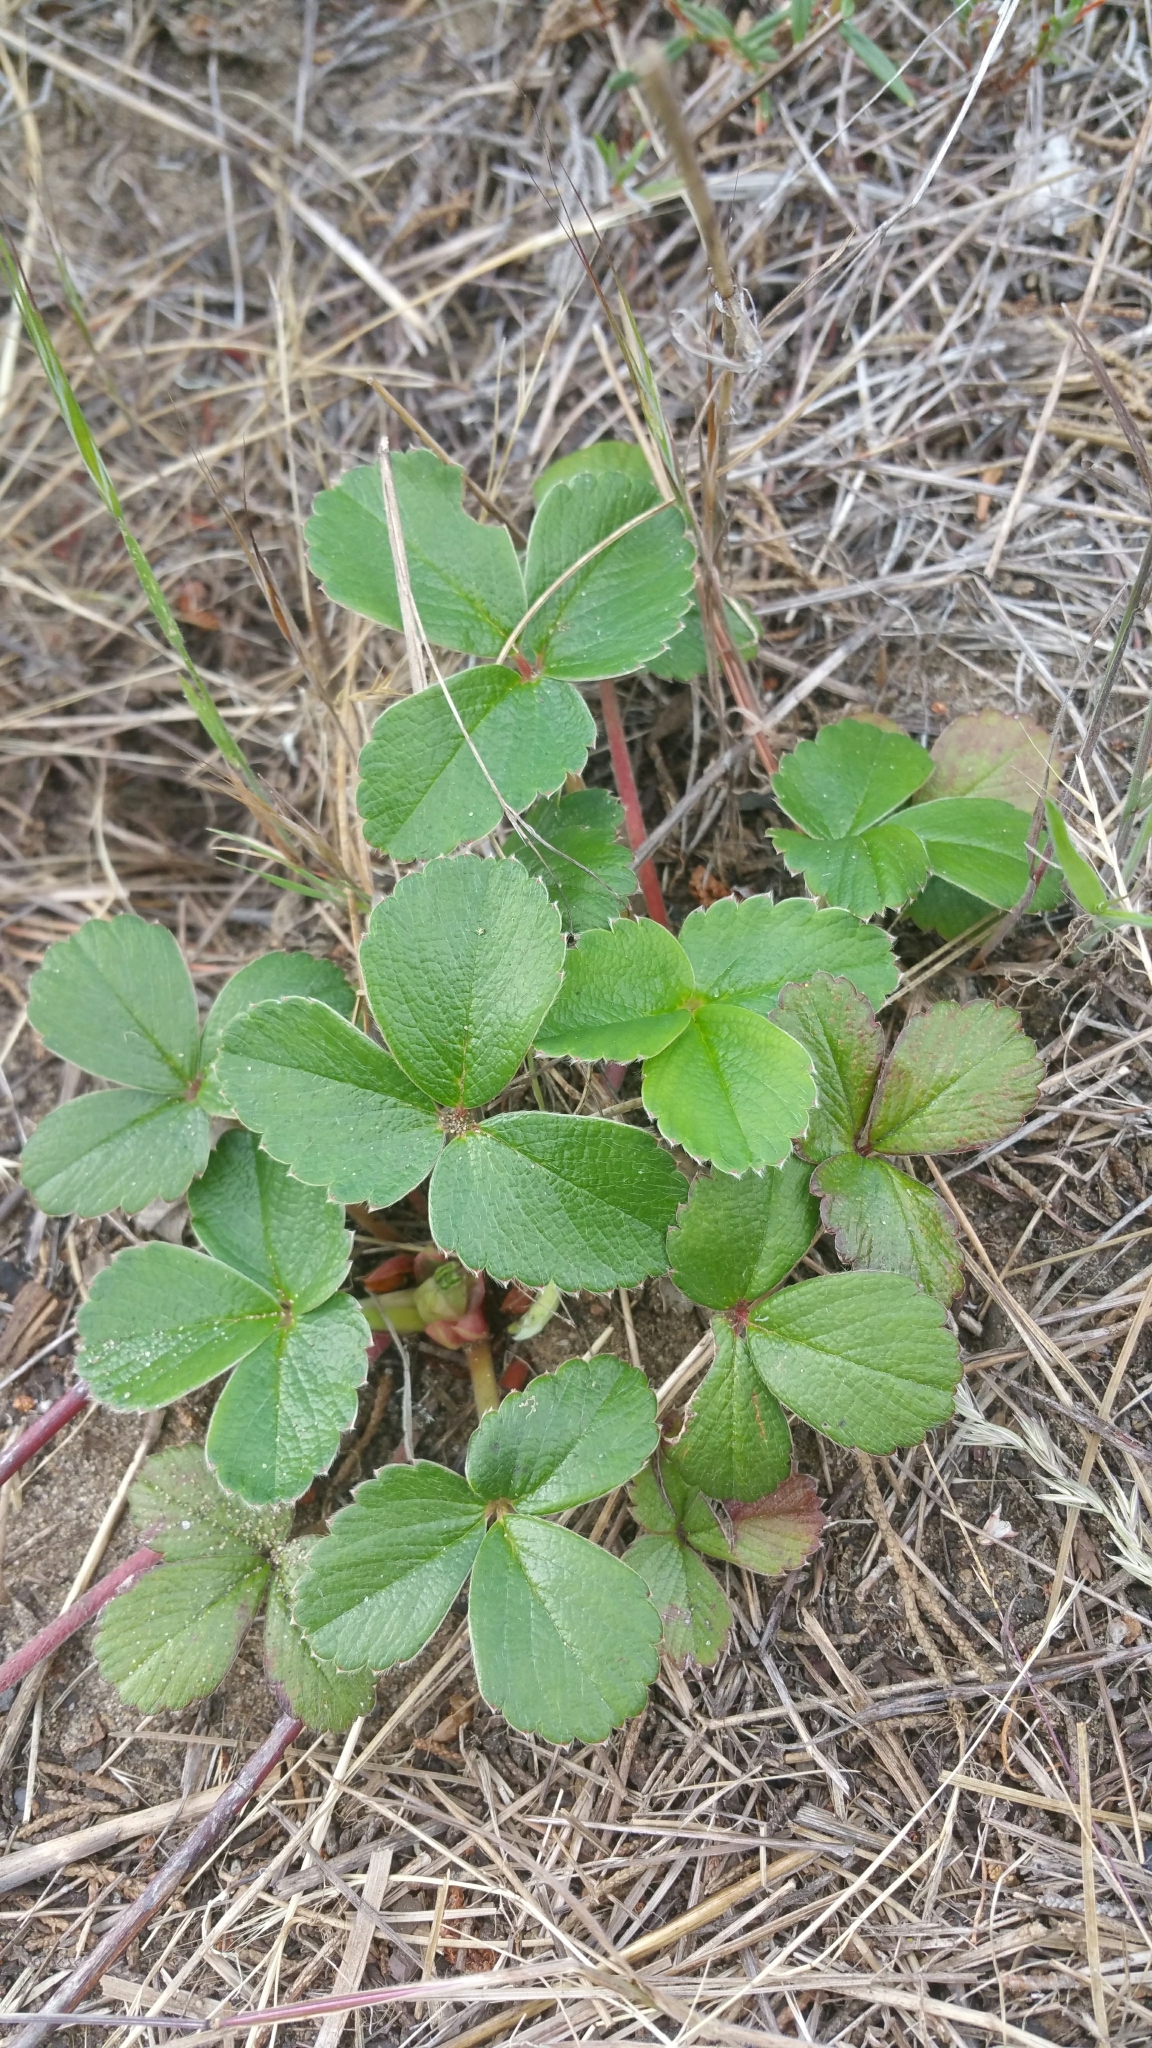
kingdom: Plantae
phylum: Tracheophyta
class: Magnoliopsida
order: Rosales
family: Rosaceae
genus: Fragaria
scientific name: Fragaria chiloensis
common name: Beach strawberry
